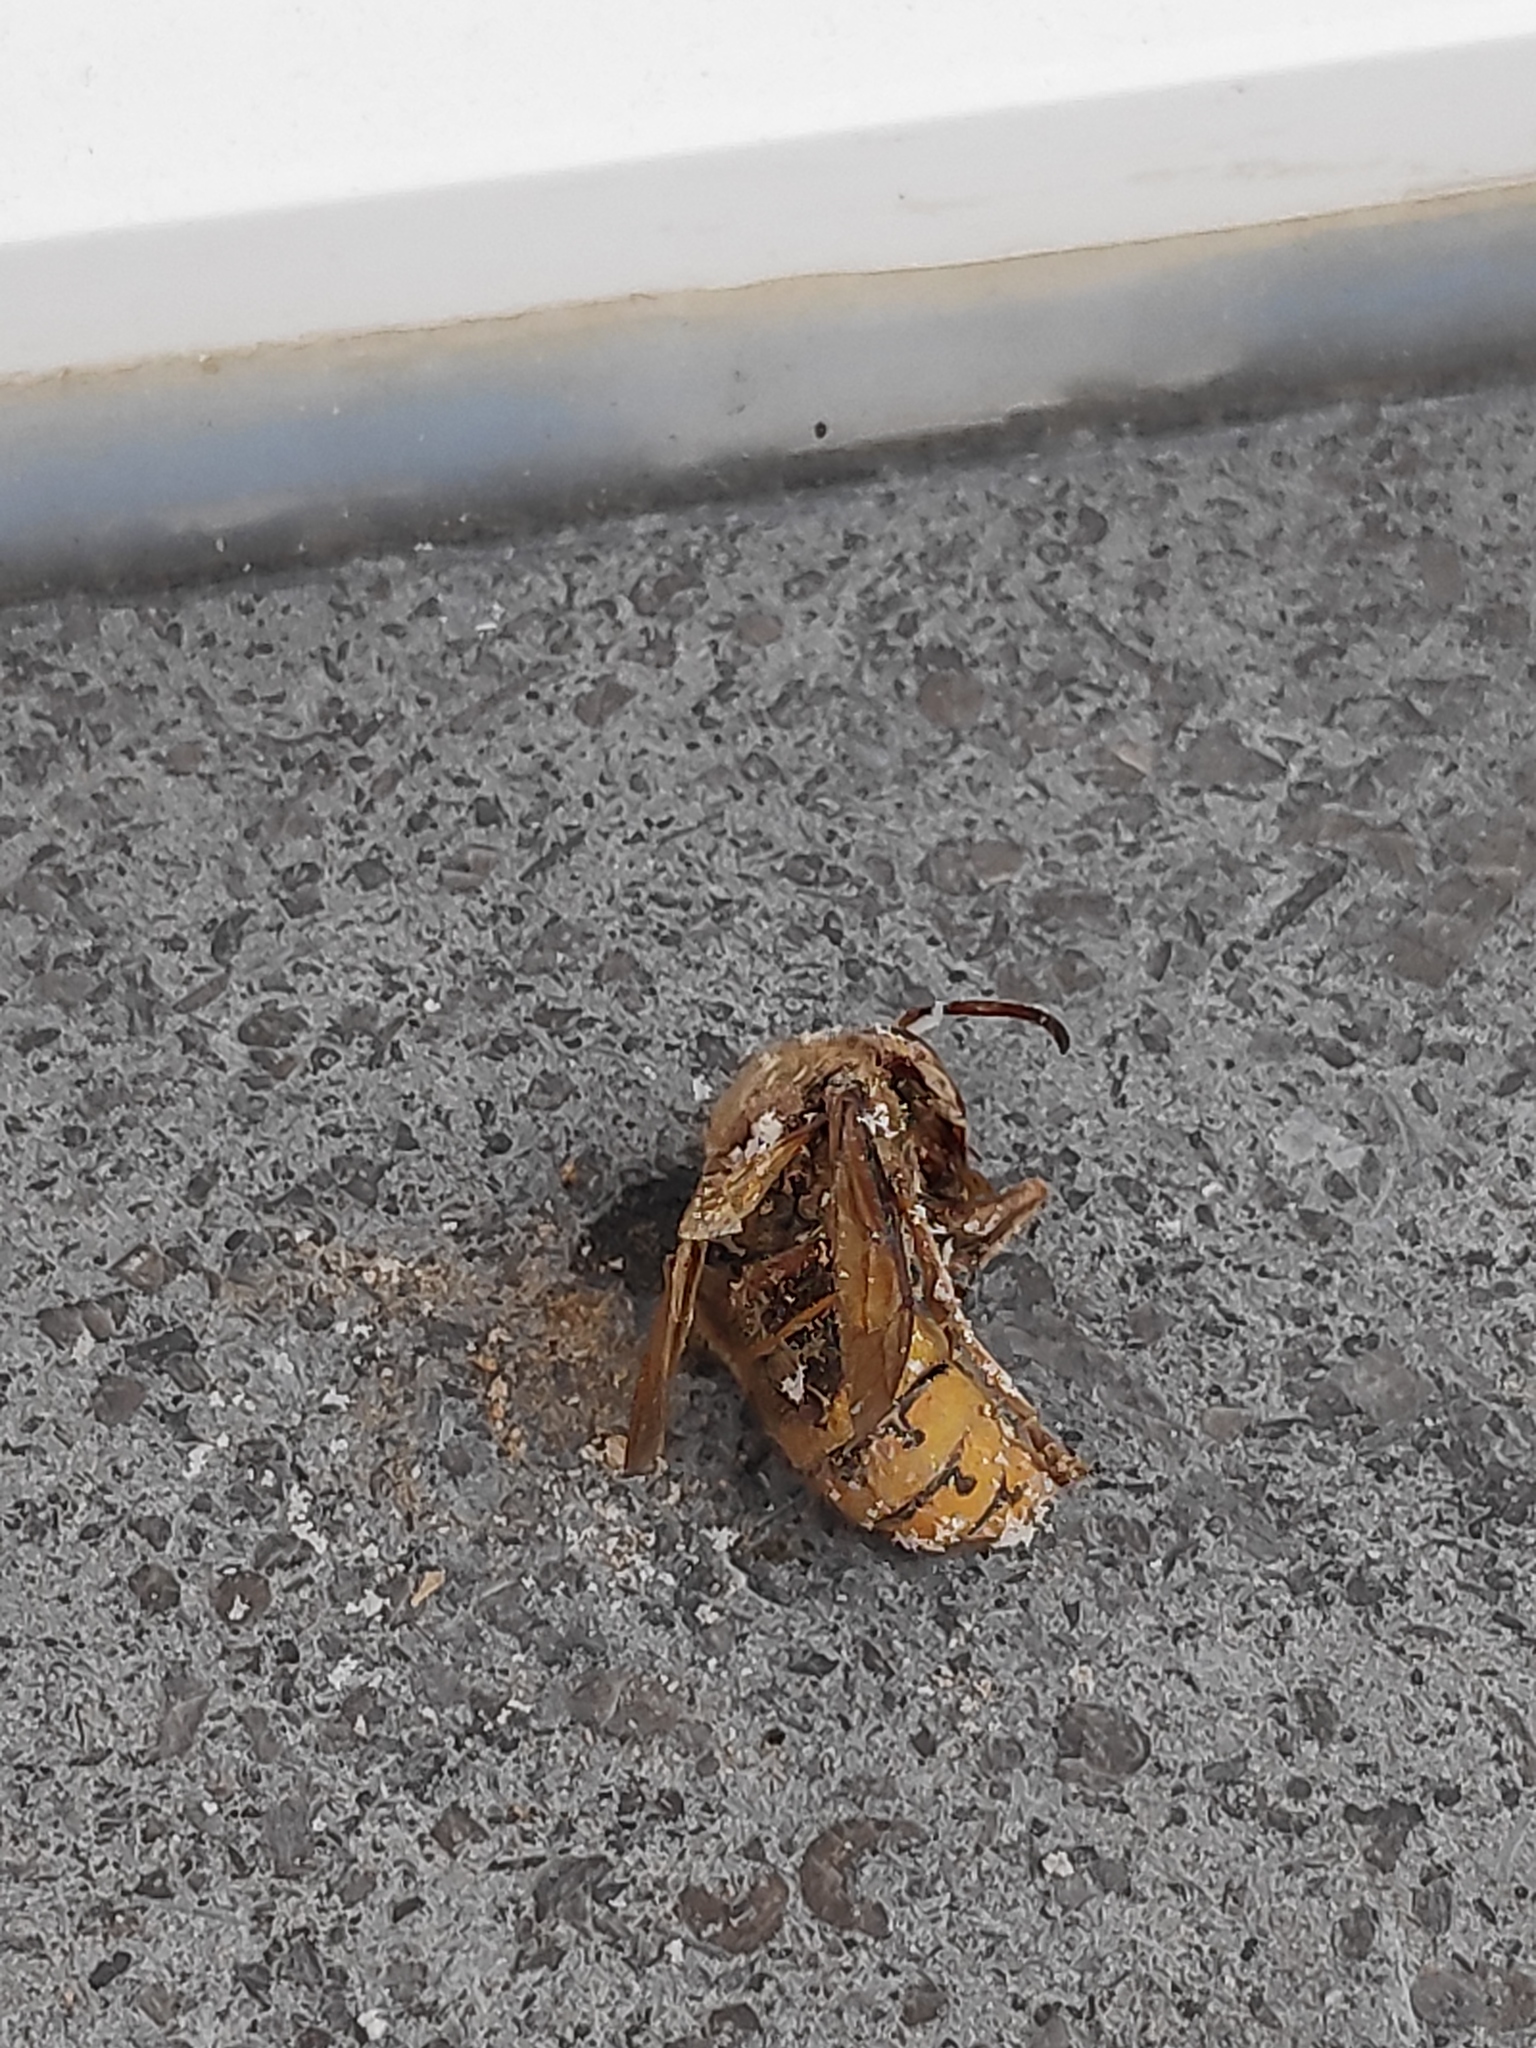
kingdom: Animalia
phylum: Arthropoda
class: Insecta
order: Hymenoptera
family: Vespidae
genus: Vespa
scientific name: Vespa crabro
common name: Hornet
